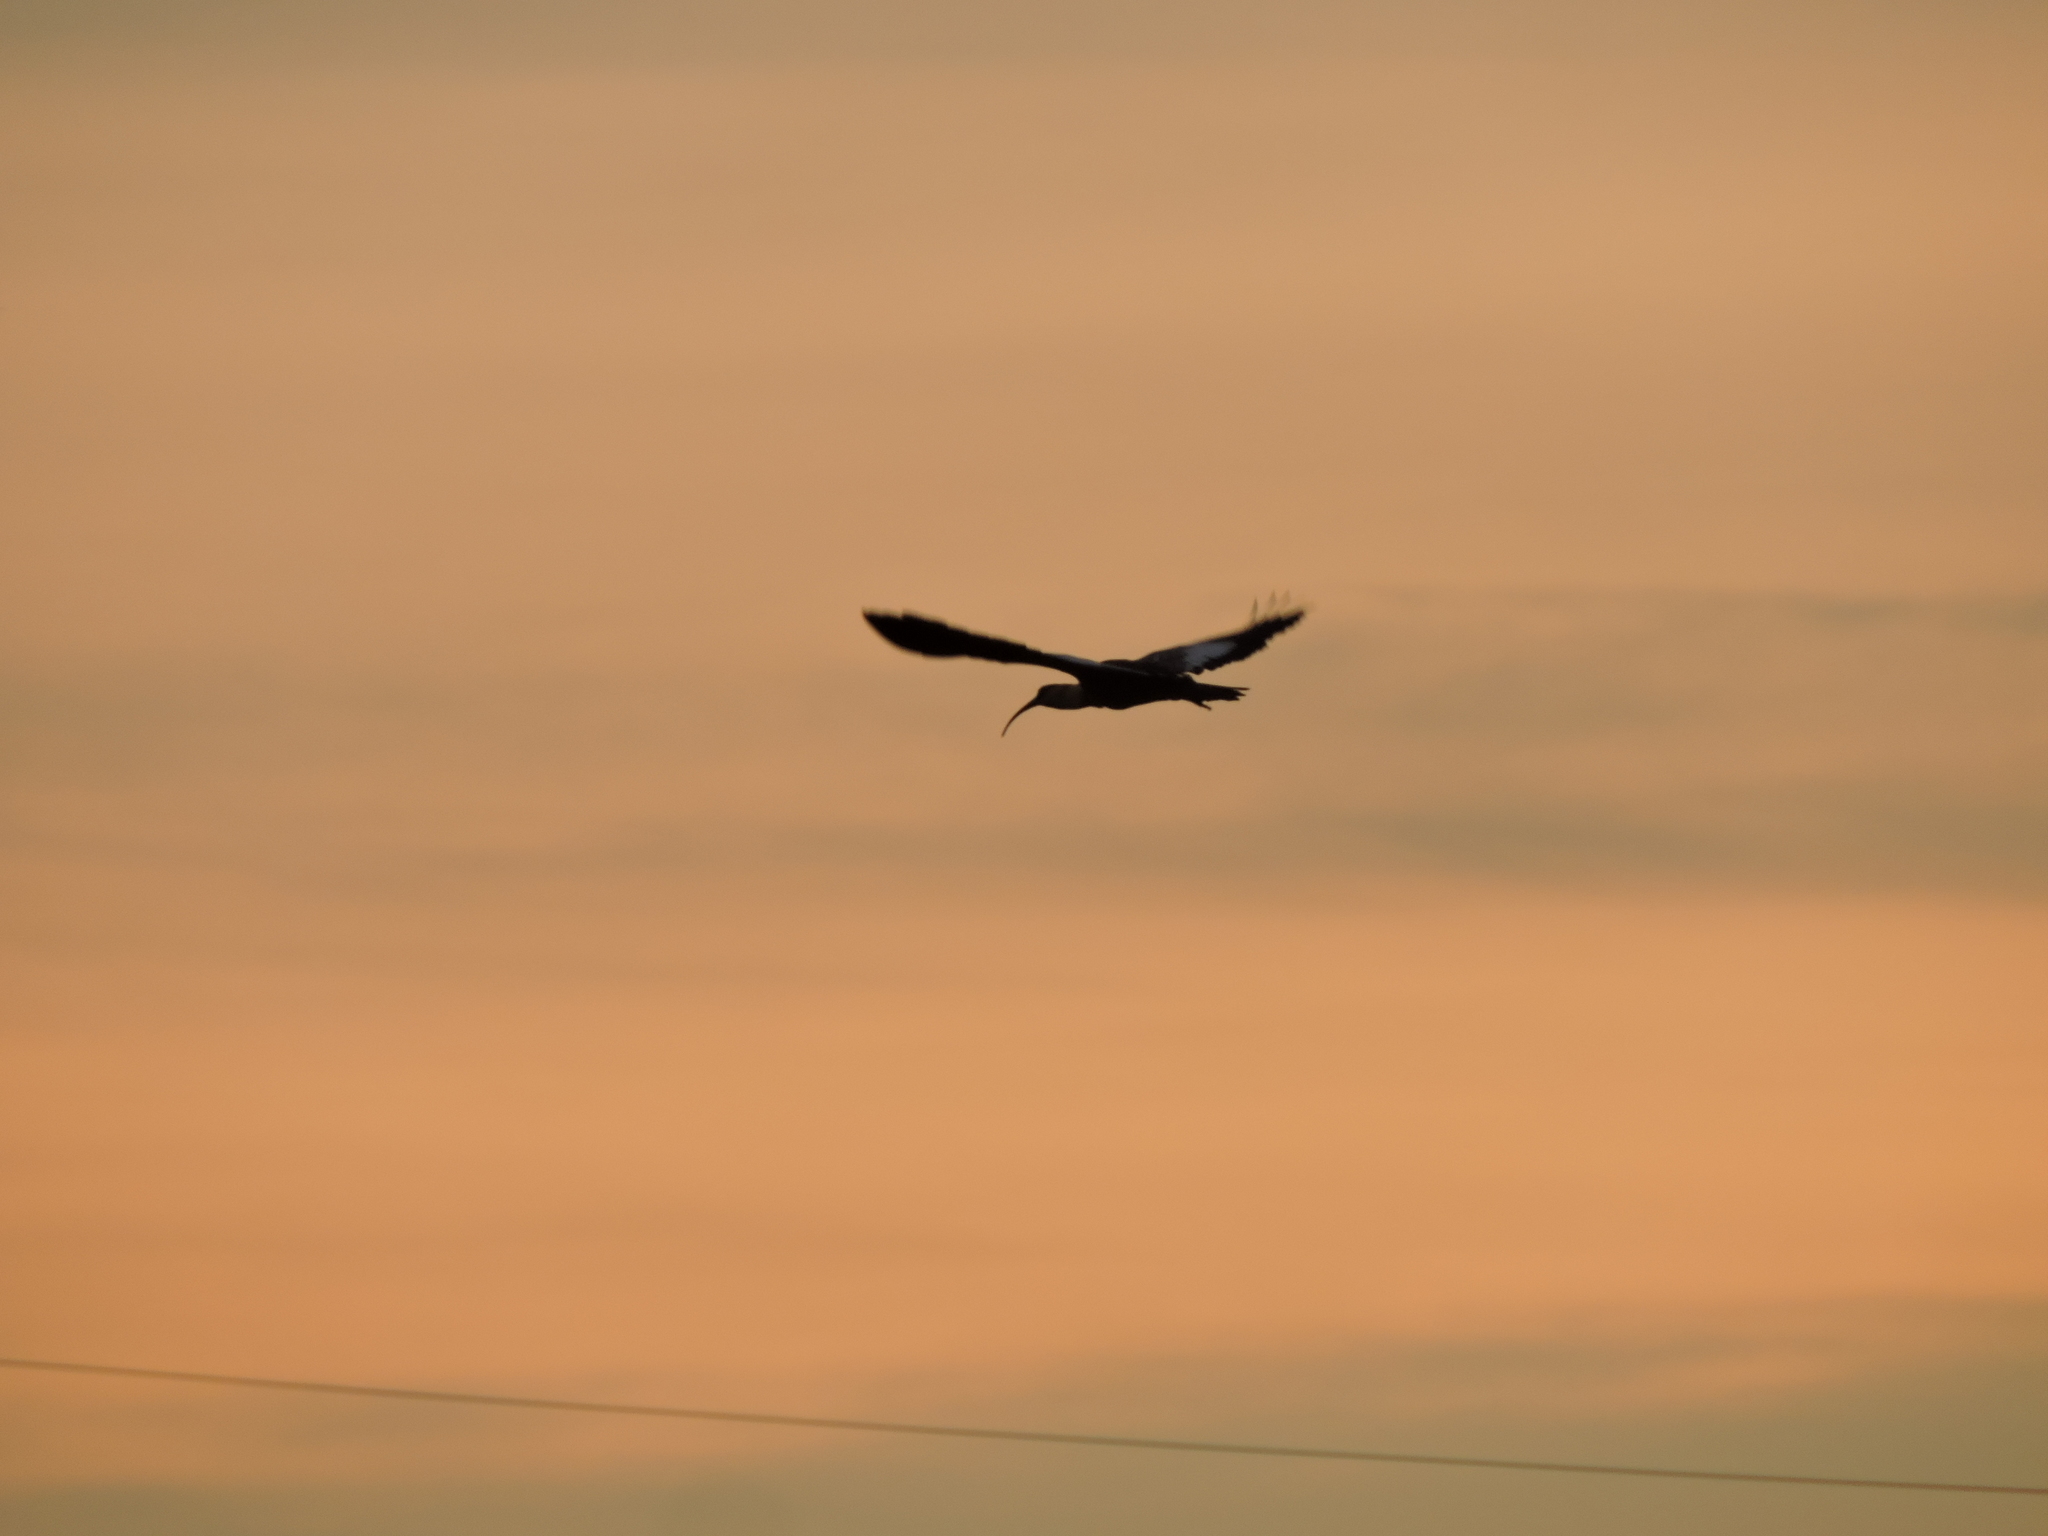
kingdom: Animalia
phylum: Chordata
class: Aves
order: Pelecaniformes
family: Threskiornithidae
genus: Theristicus
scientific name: Theristicus caudatus
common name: Buff-necked ibis
